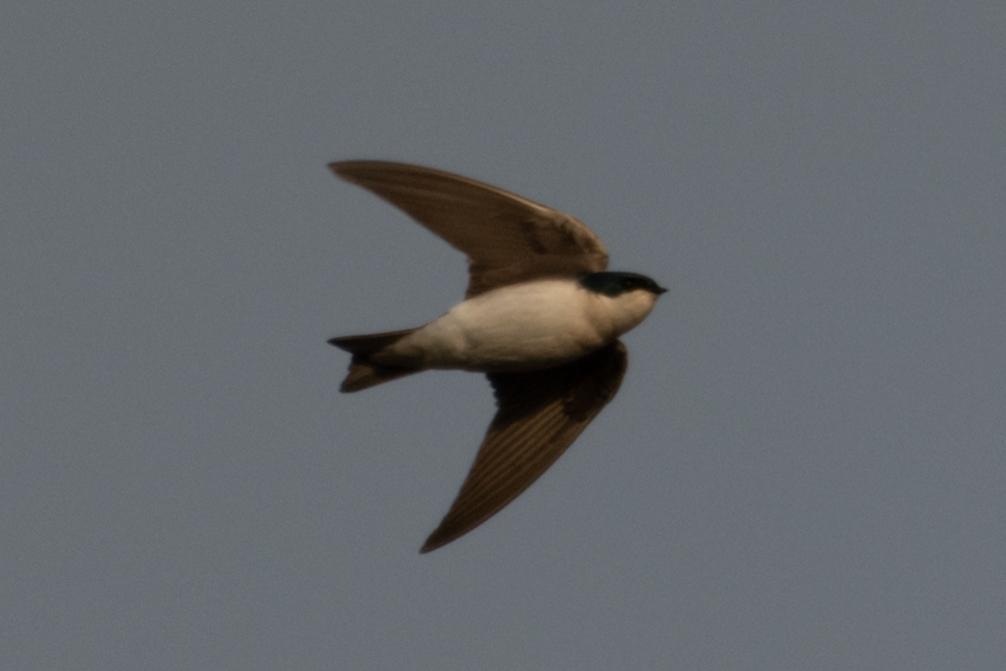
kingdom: Animalia
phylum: Chordata
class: Aves
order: Passeriformes
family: Hirundinidae
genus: Tachycineta
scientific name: Tachycineta bicolor
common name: Tree swallow
